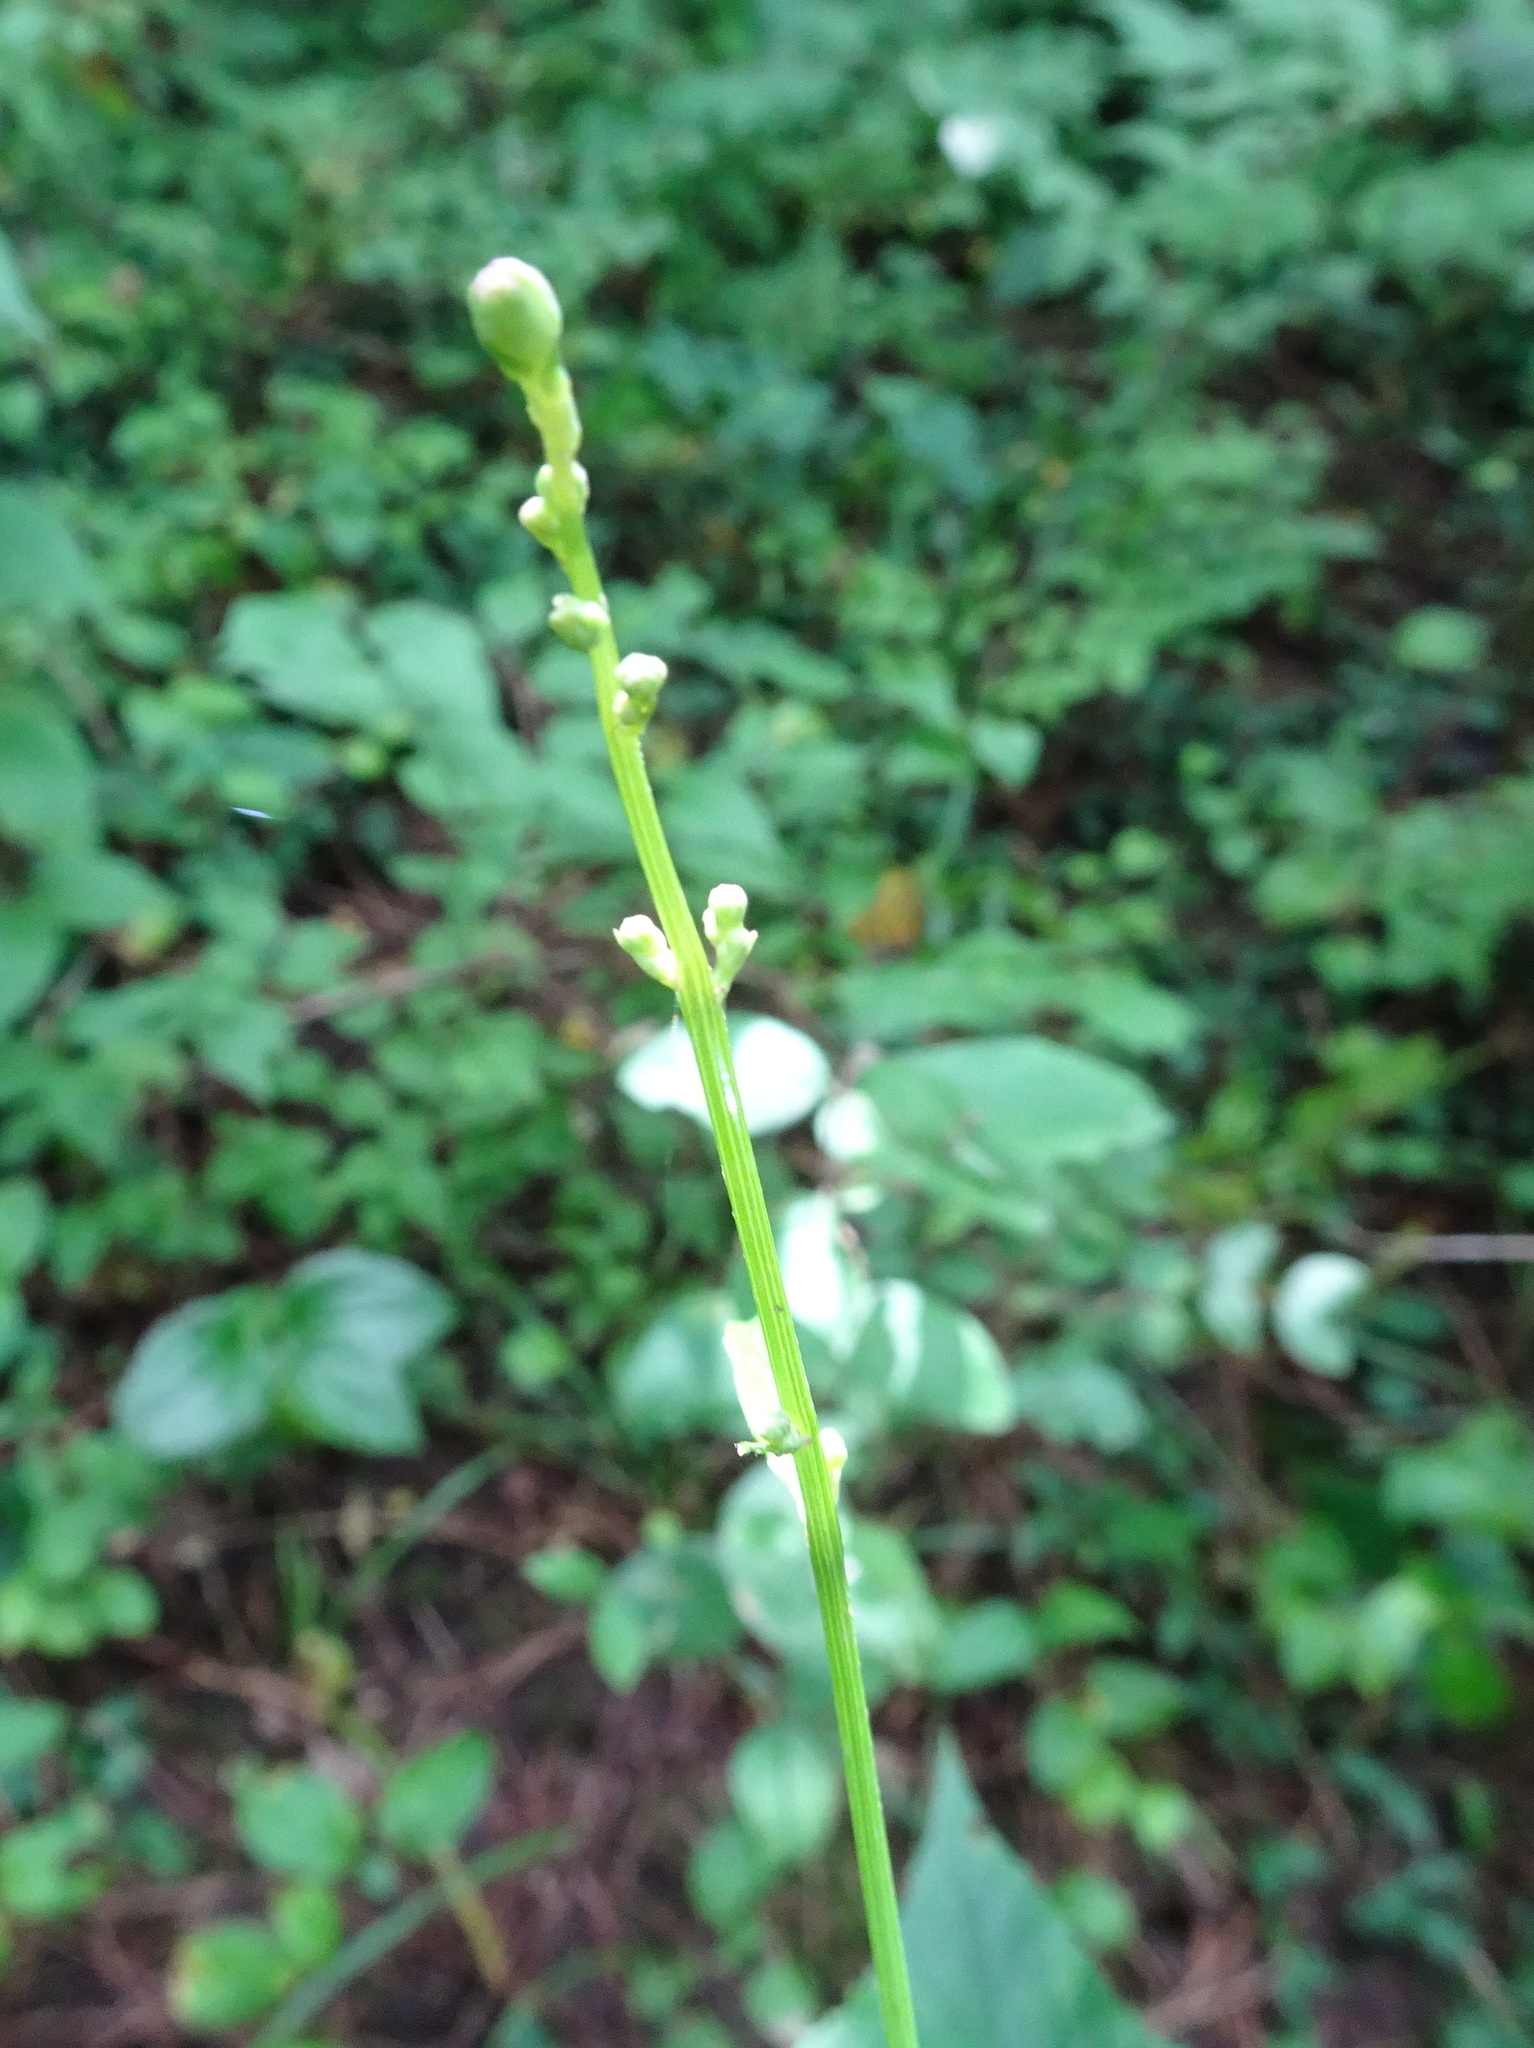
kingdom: Plantae
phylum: Tracheophyta
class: Magnoliopsida
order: Asterales
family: Asteraceae
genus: Lactuca
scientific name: Lactuca floridana
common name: Woodland lettuce
